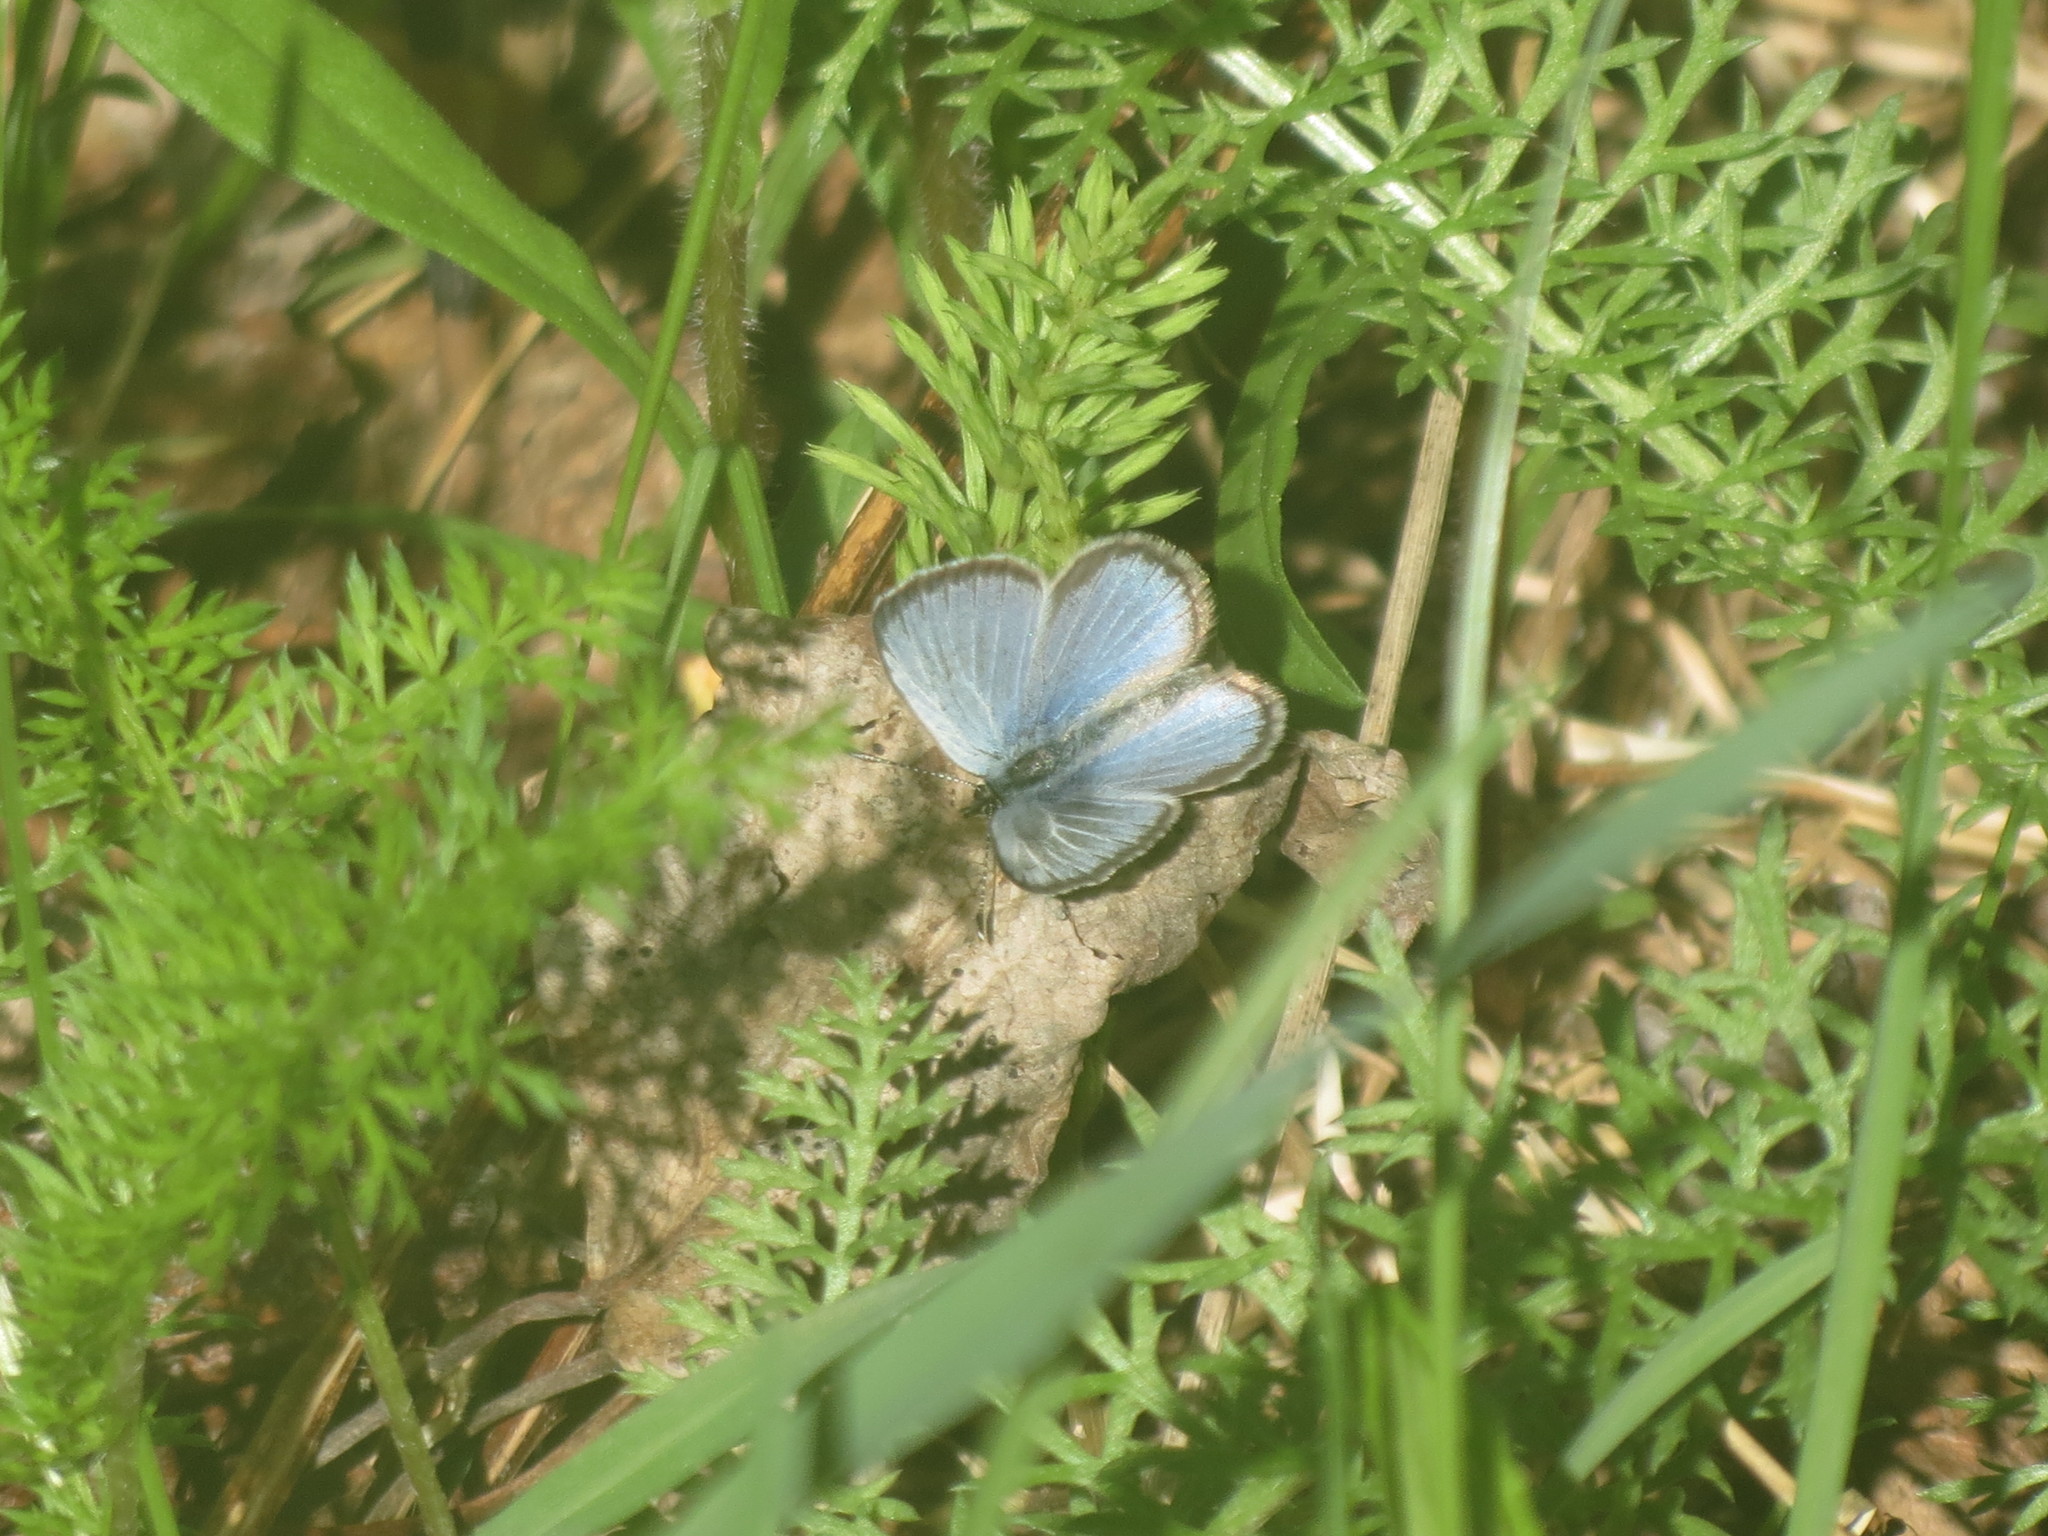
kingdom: Animalia
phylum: Arthropoda
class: Insecta
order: Lepidoptera
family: Lycaenidae
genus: Glaucopsyche
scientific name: Glaucopsyche lygdamus
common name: Silvery blue
